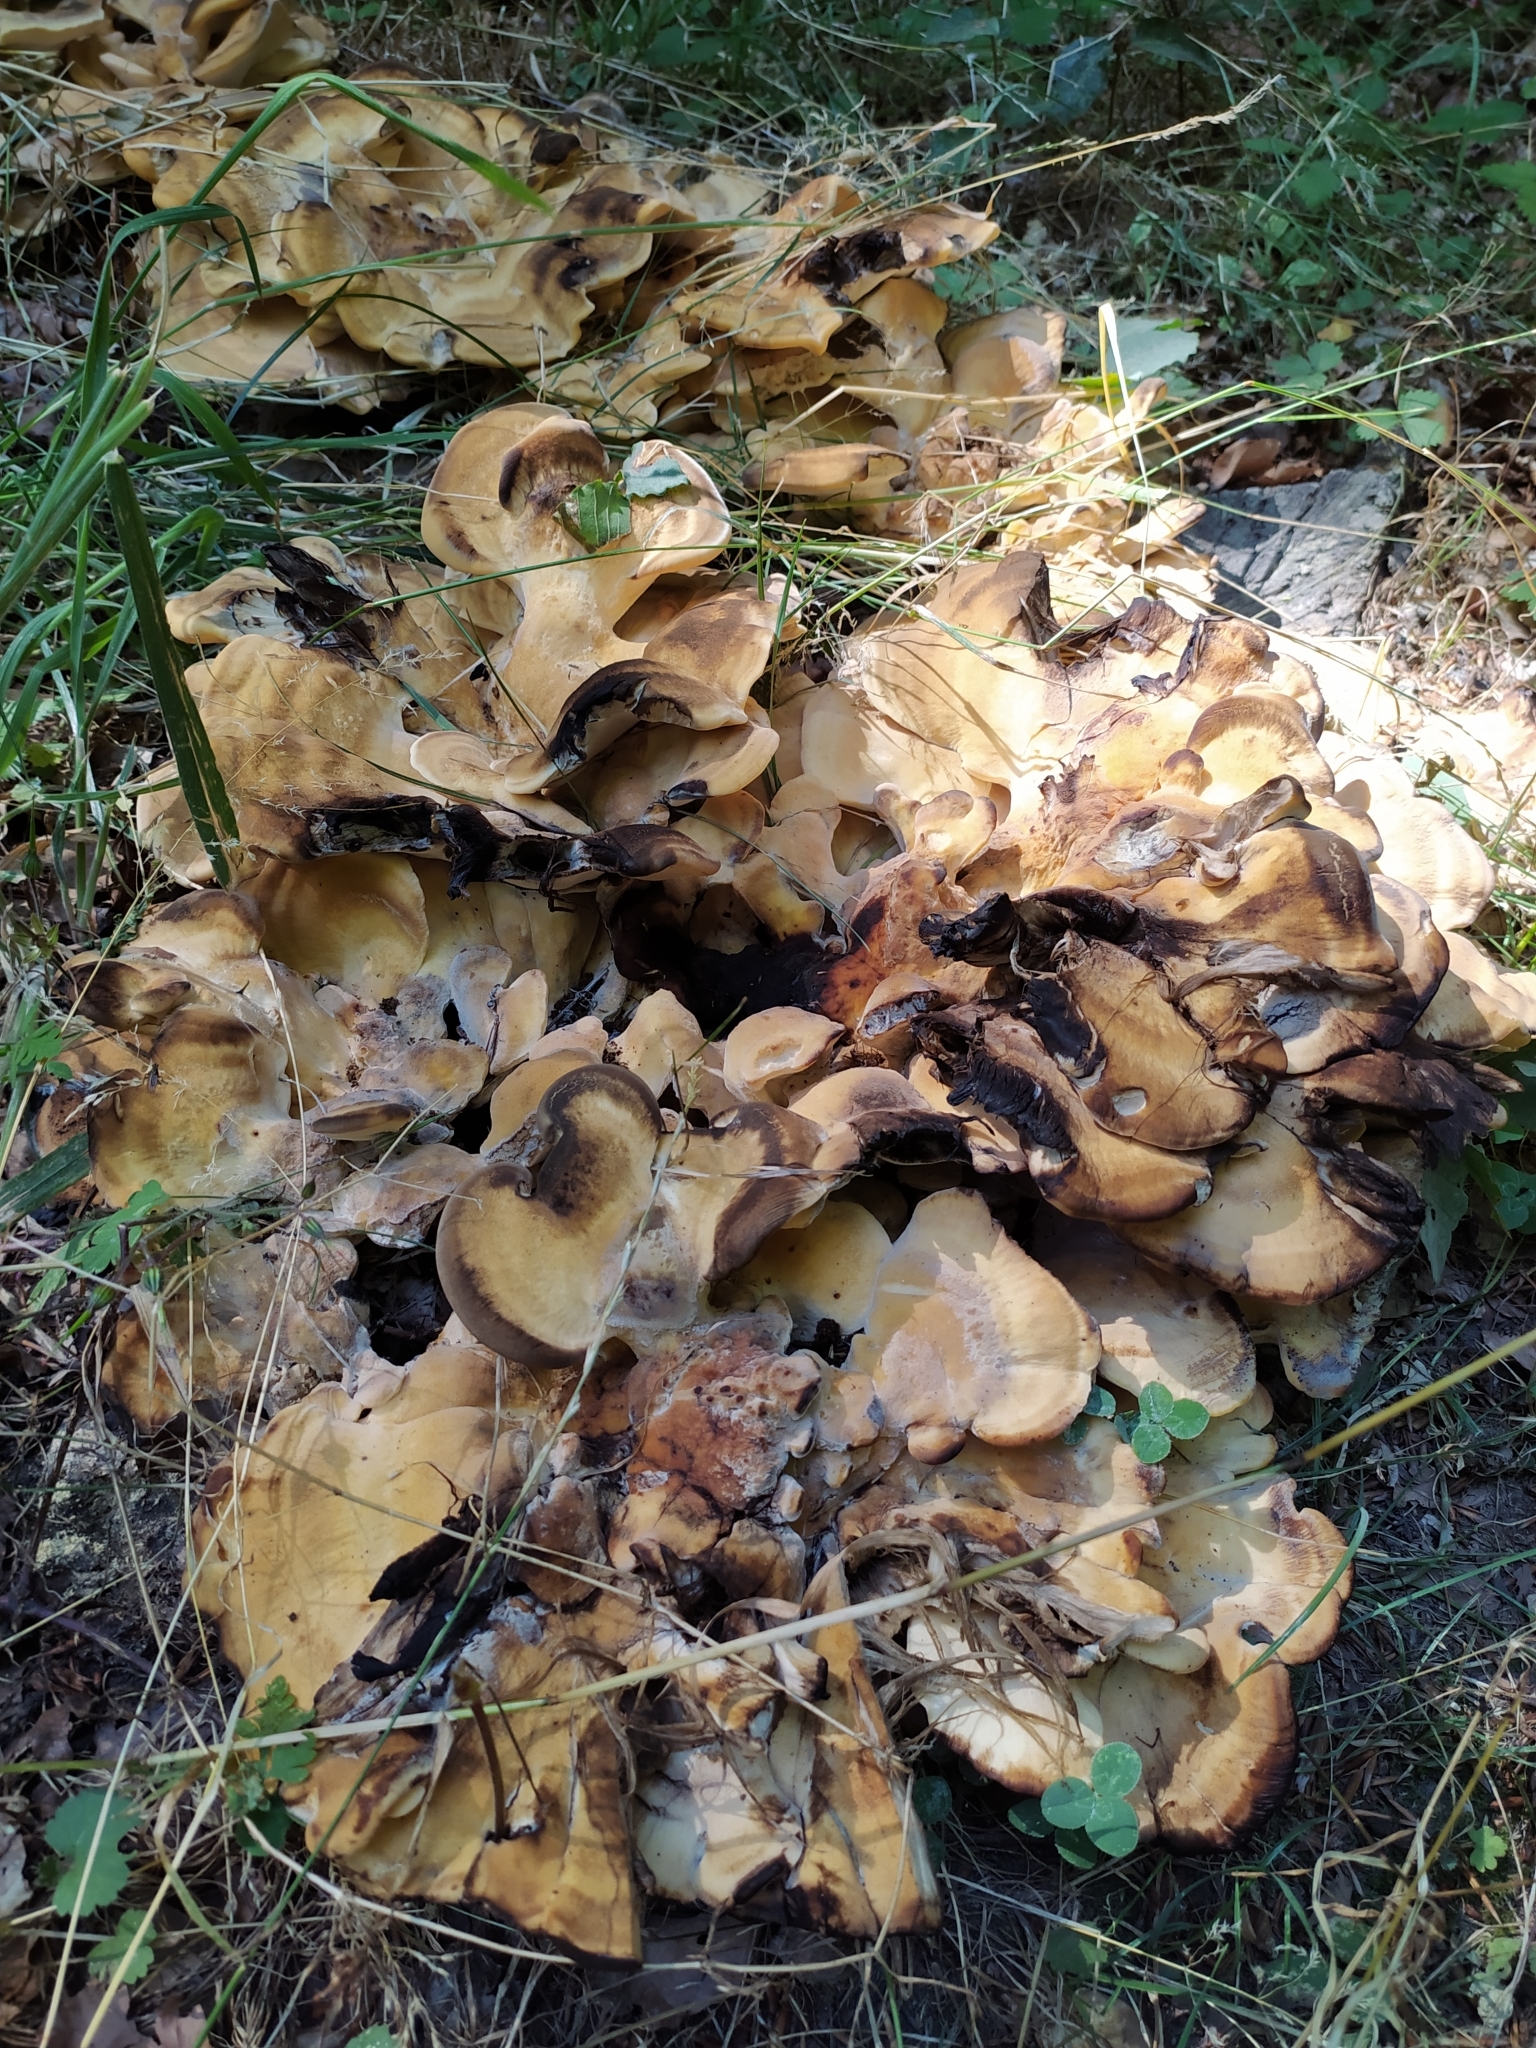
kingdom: Fungi
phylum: Basidiomycota
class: Agaricomycetes
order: Polyporales
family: Meripilaceae
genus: Meripilus
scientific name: Meripilus giganteus
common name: Giant polypore
